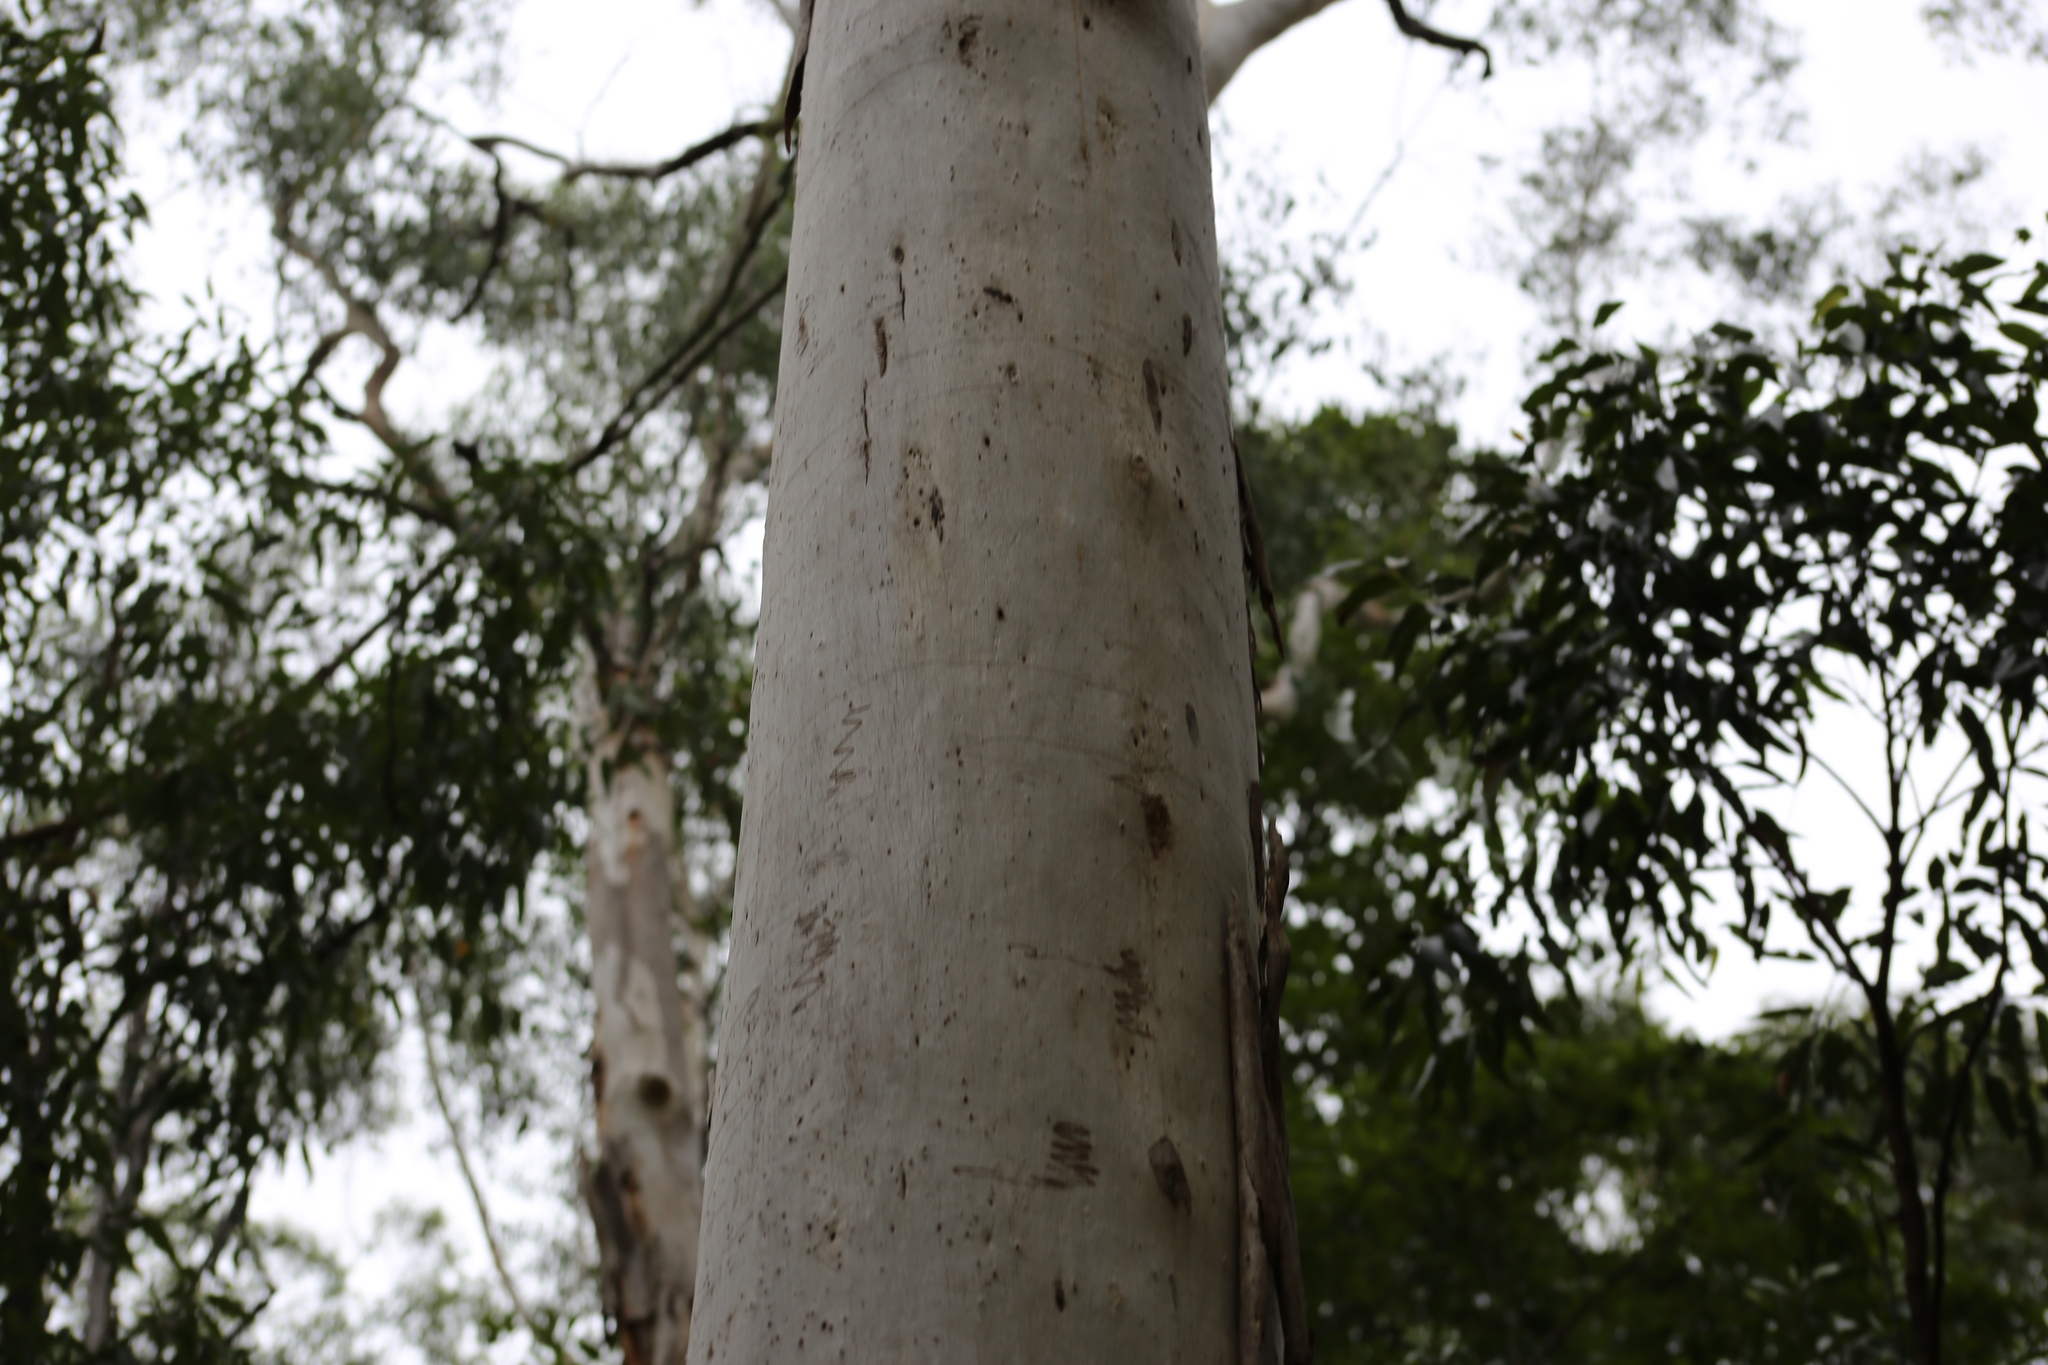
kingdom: Plantae
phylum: Tracheophyta
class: Magnoliopsida
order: Myrtales
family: Myrtaceae
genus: Eucalyptus
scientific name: Eucalyptus racemosa
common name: Scribbly gum
